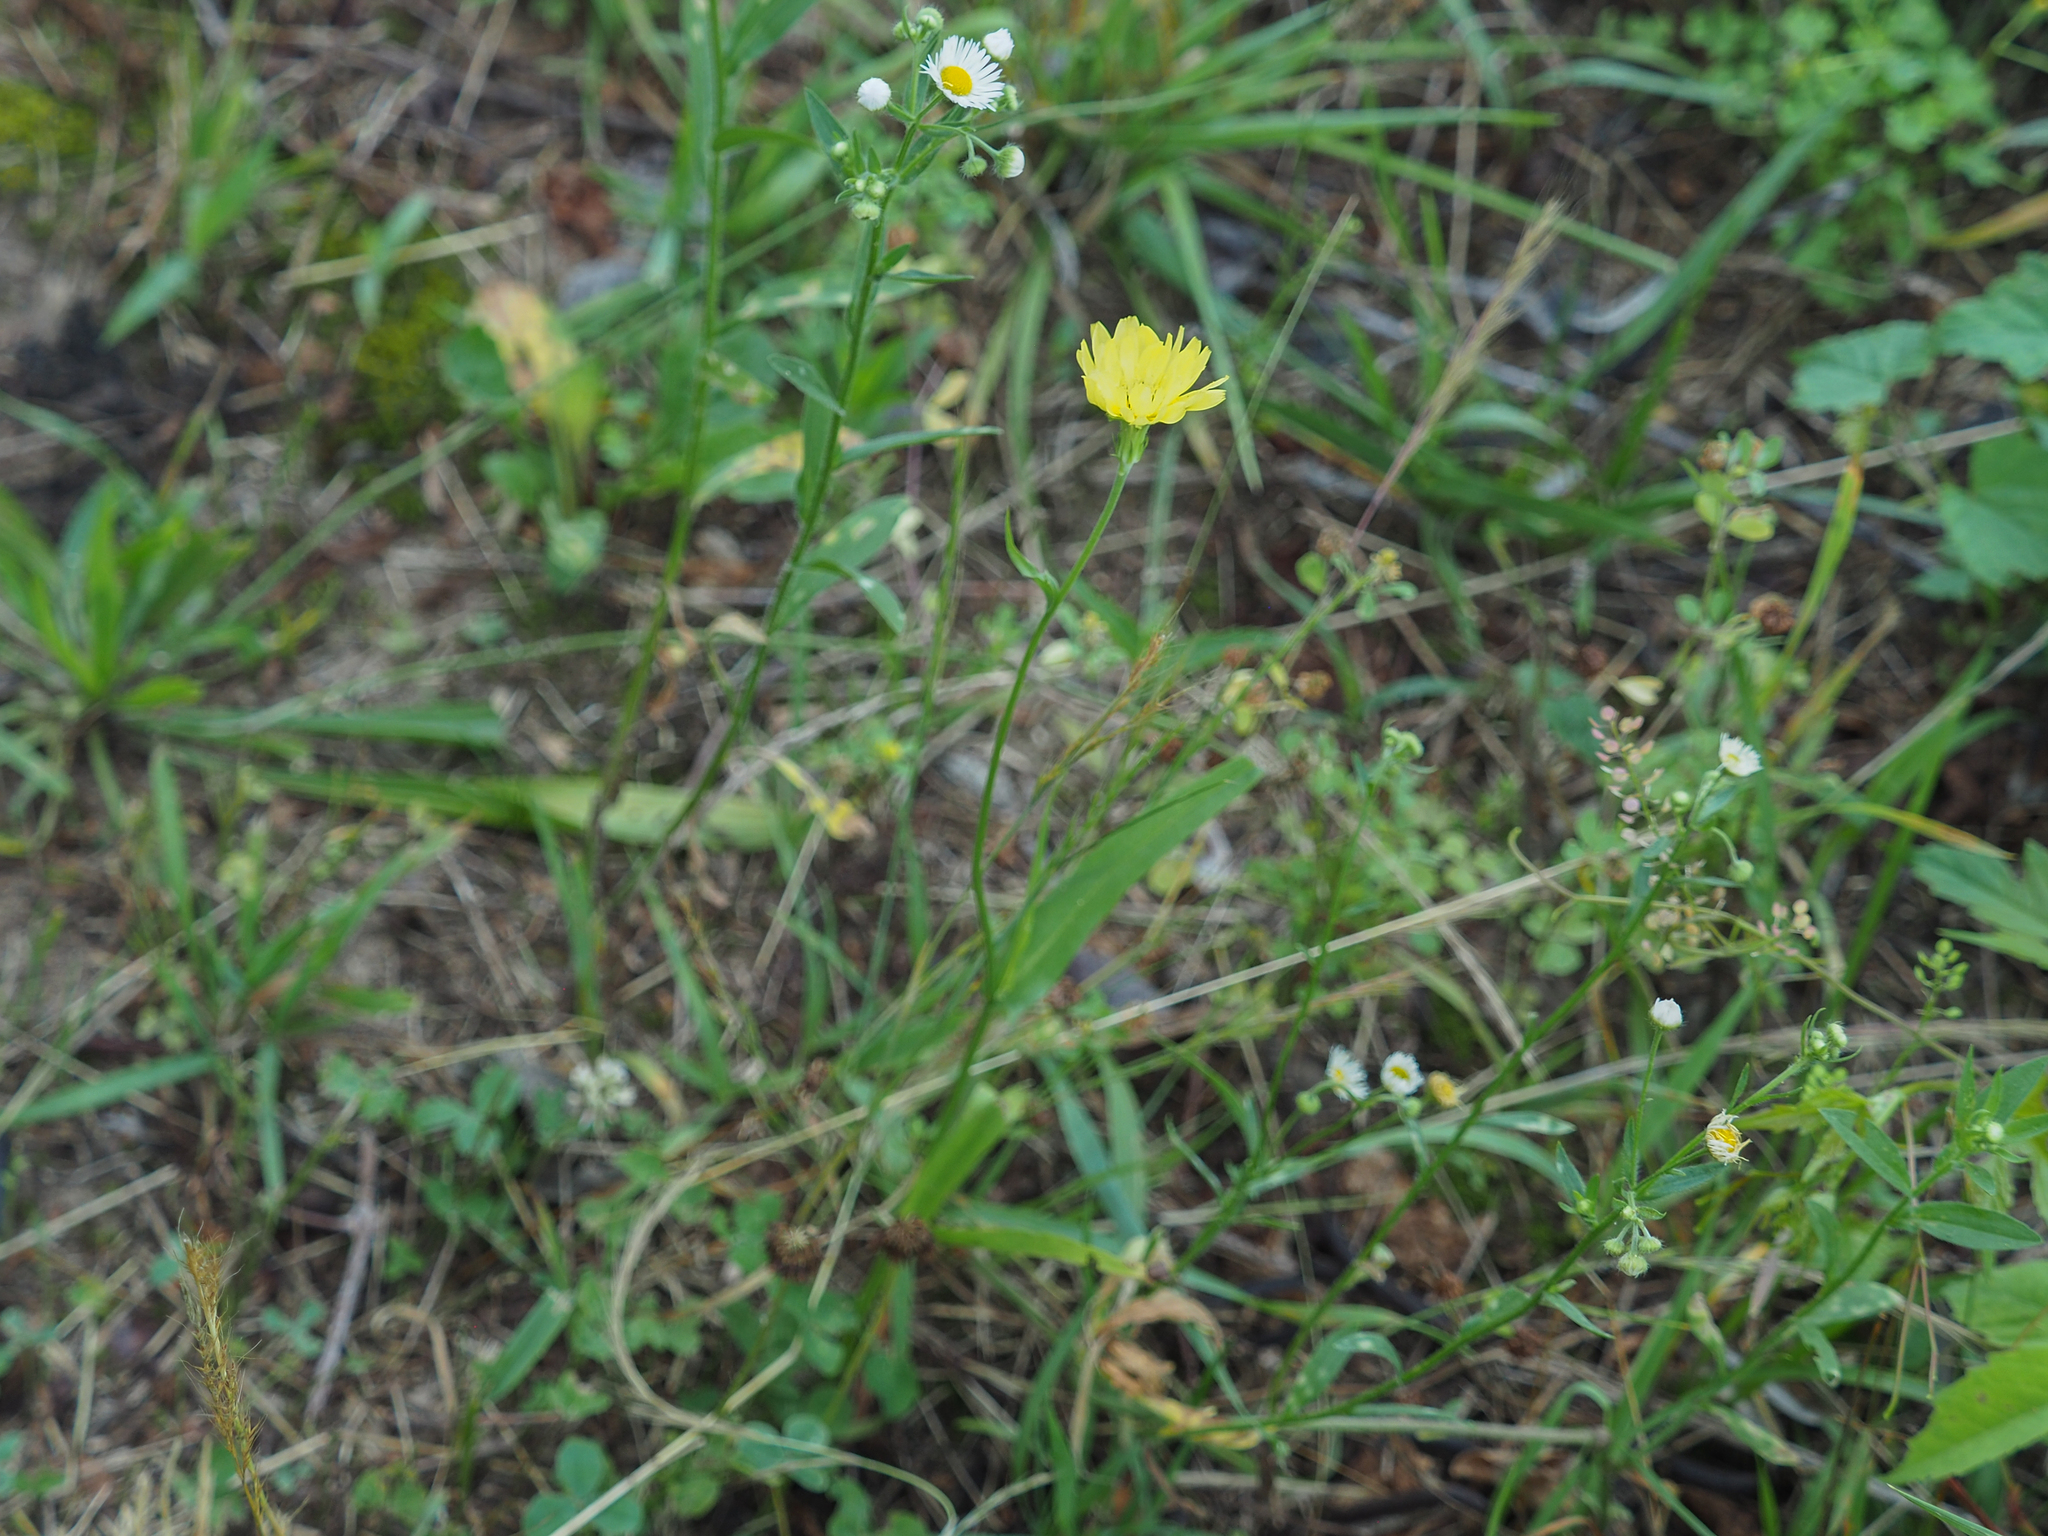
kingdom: Plantae
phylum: Tracheophyta
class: Magnoliopsida
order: Asterales
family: Asteraceae
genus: Pyrrhopappus
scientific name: Pyrrhopappus carolinianus
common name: Carolina desert-chicory
